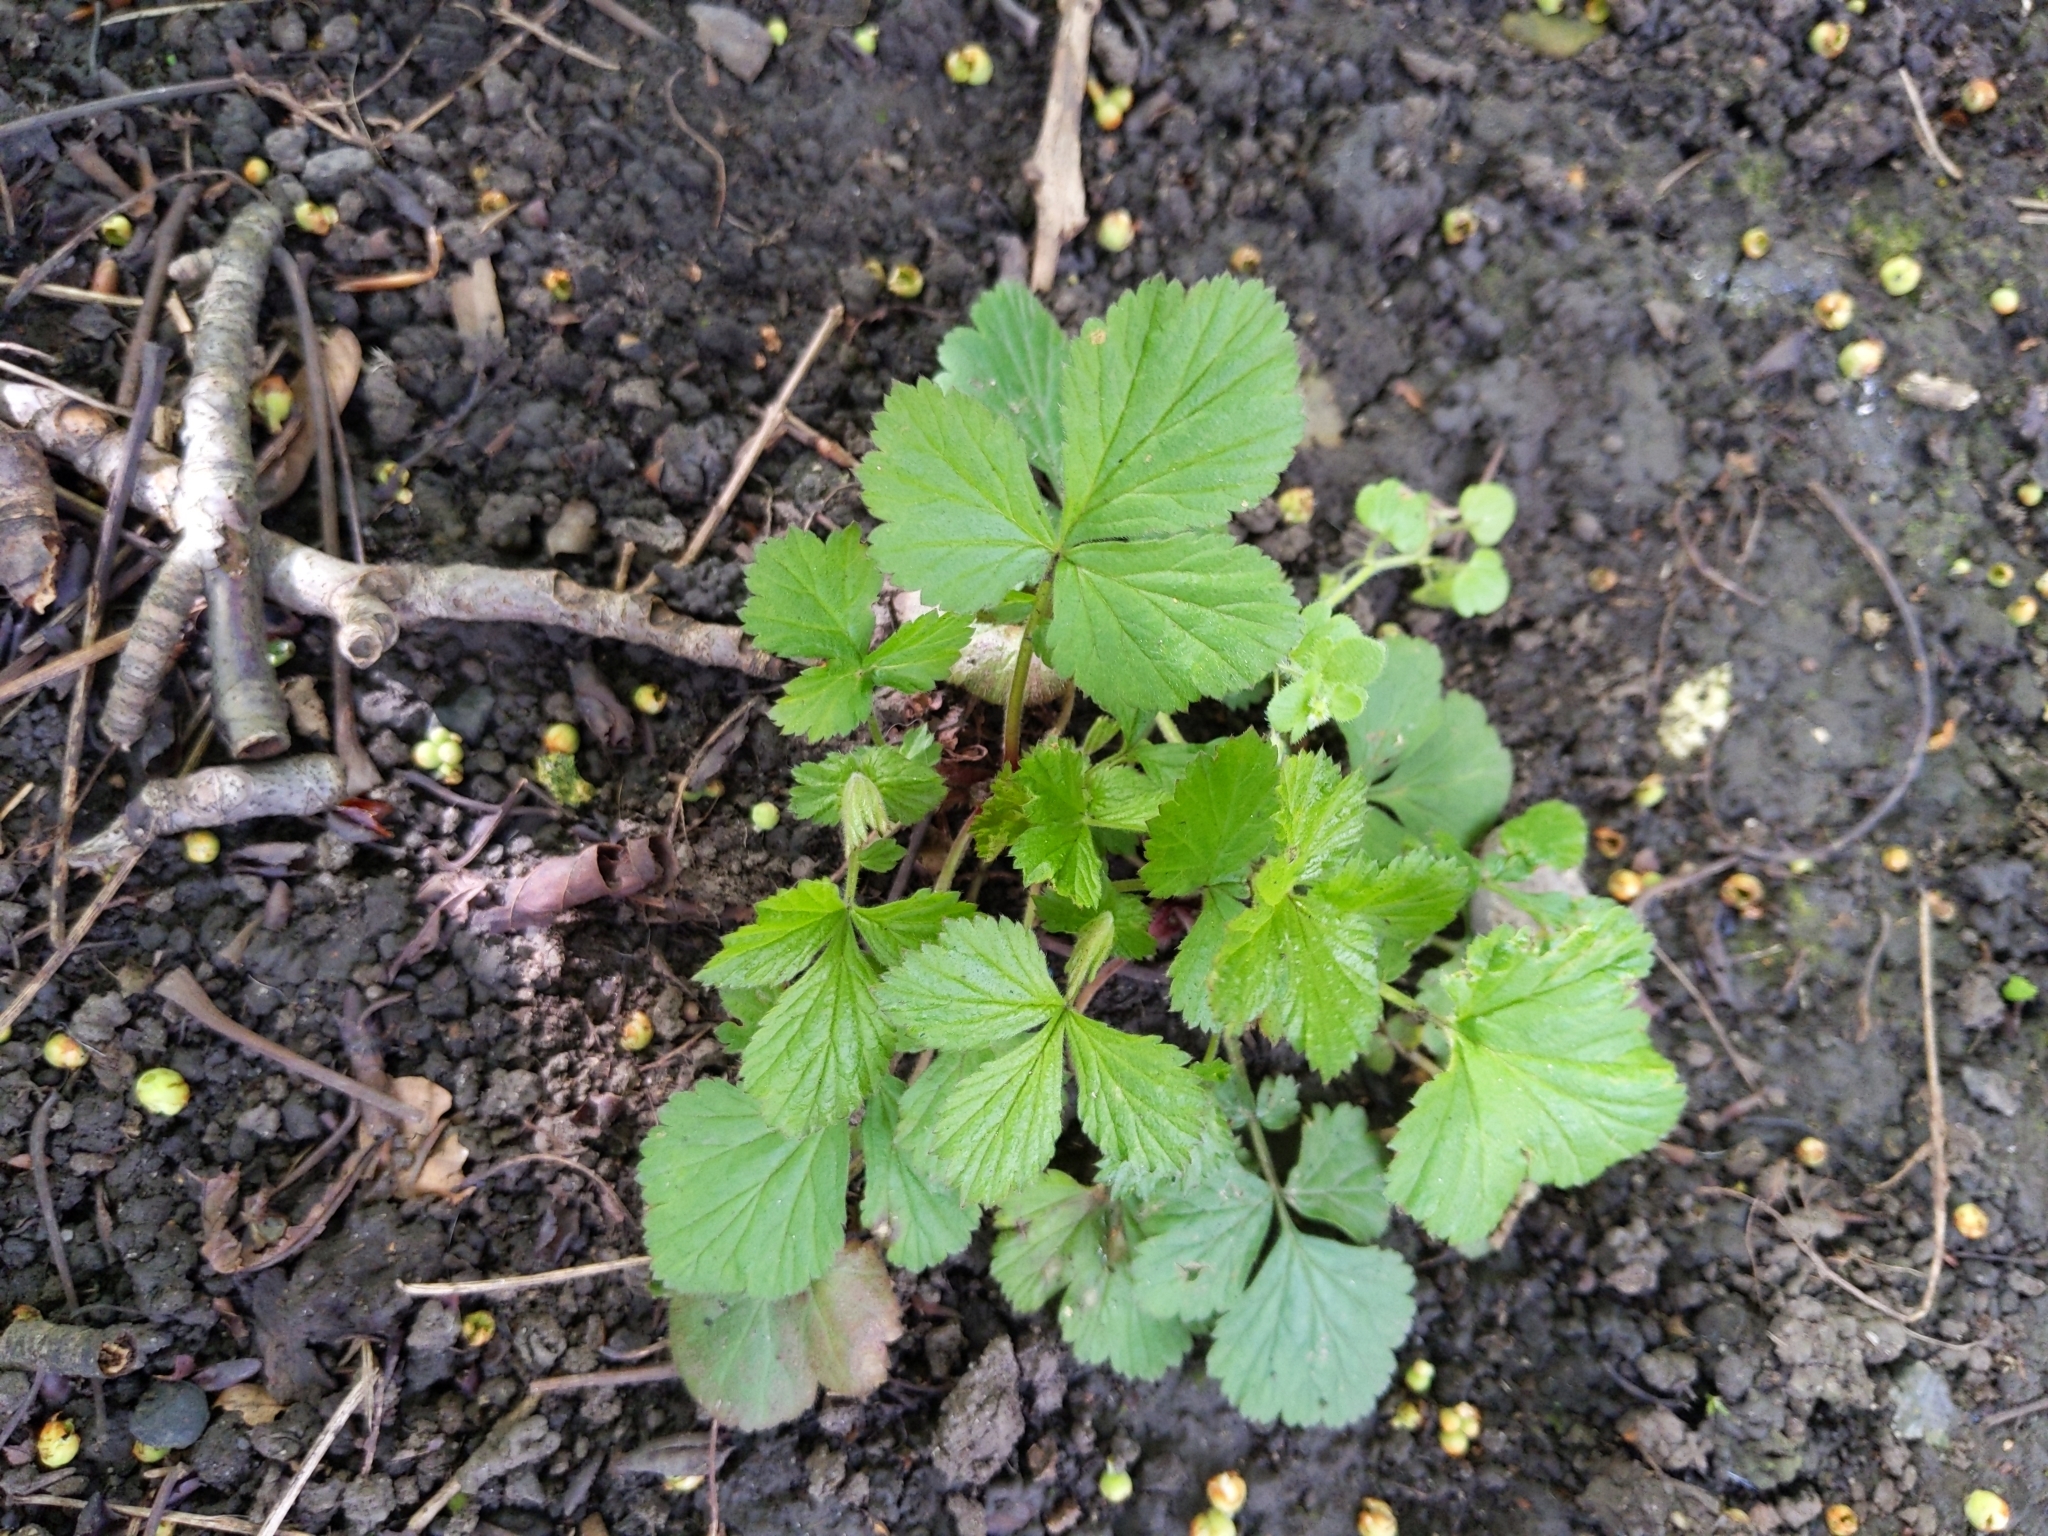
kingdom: Plantae
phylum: Tracheophyta
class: Magnoliopsida
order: Rosales
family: Rosaceae
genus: Geum
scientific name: Geum urbanum
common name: Wood avens
